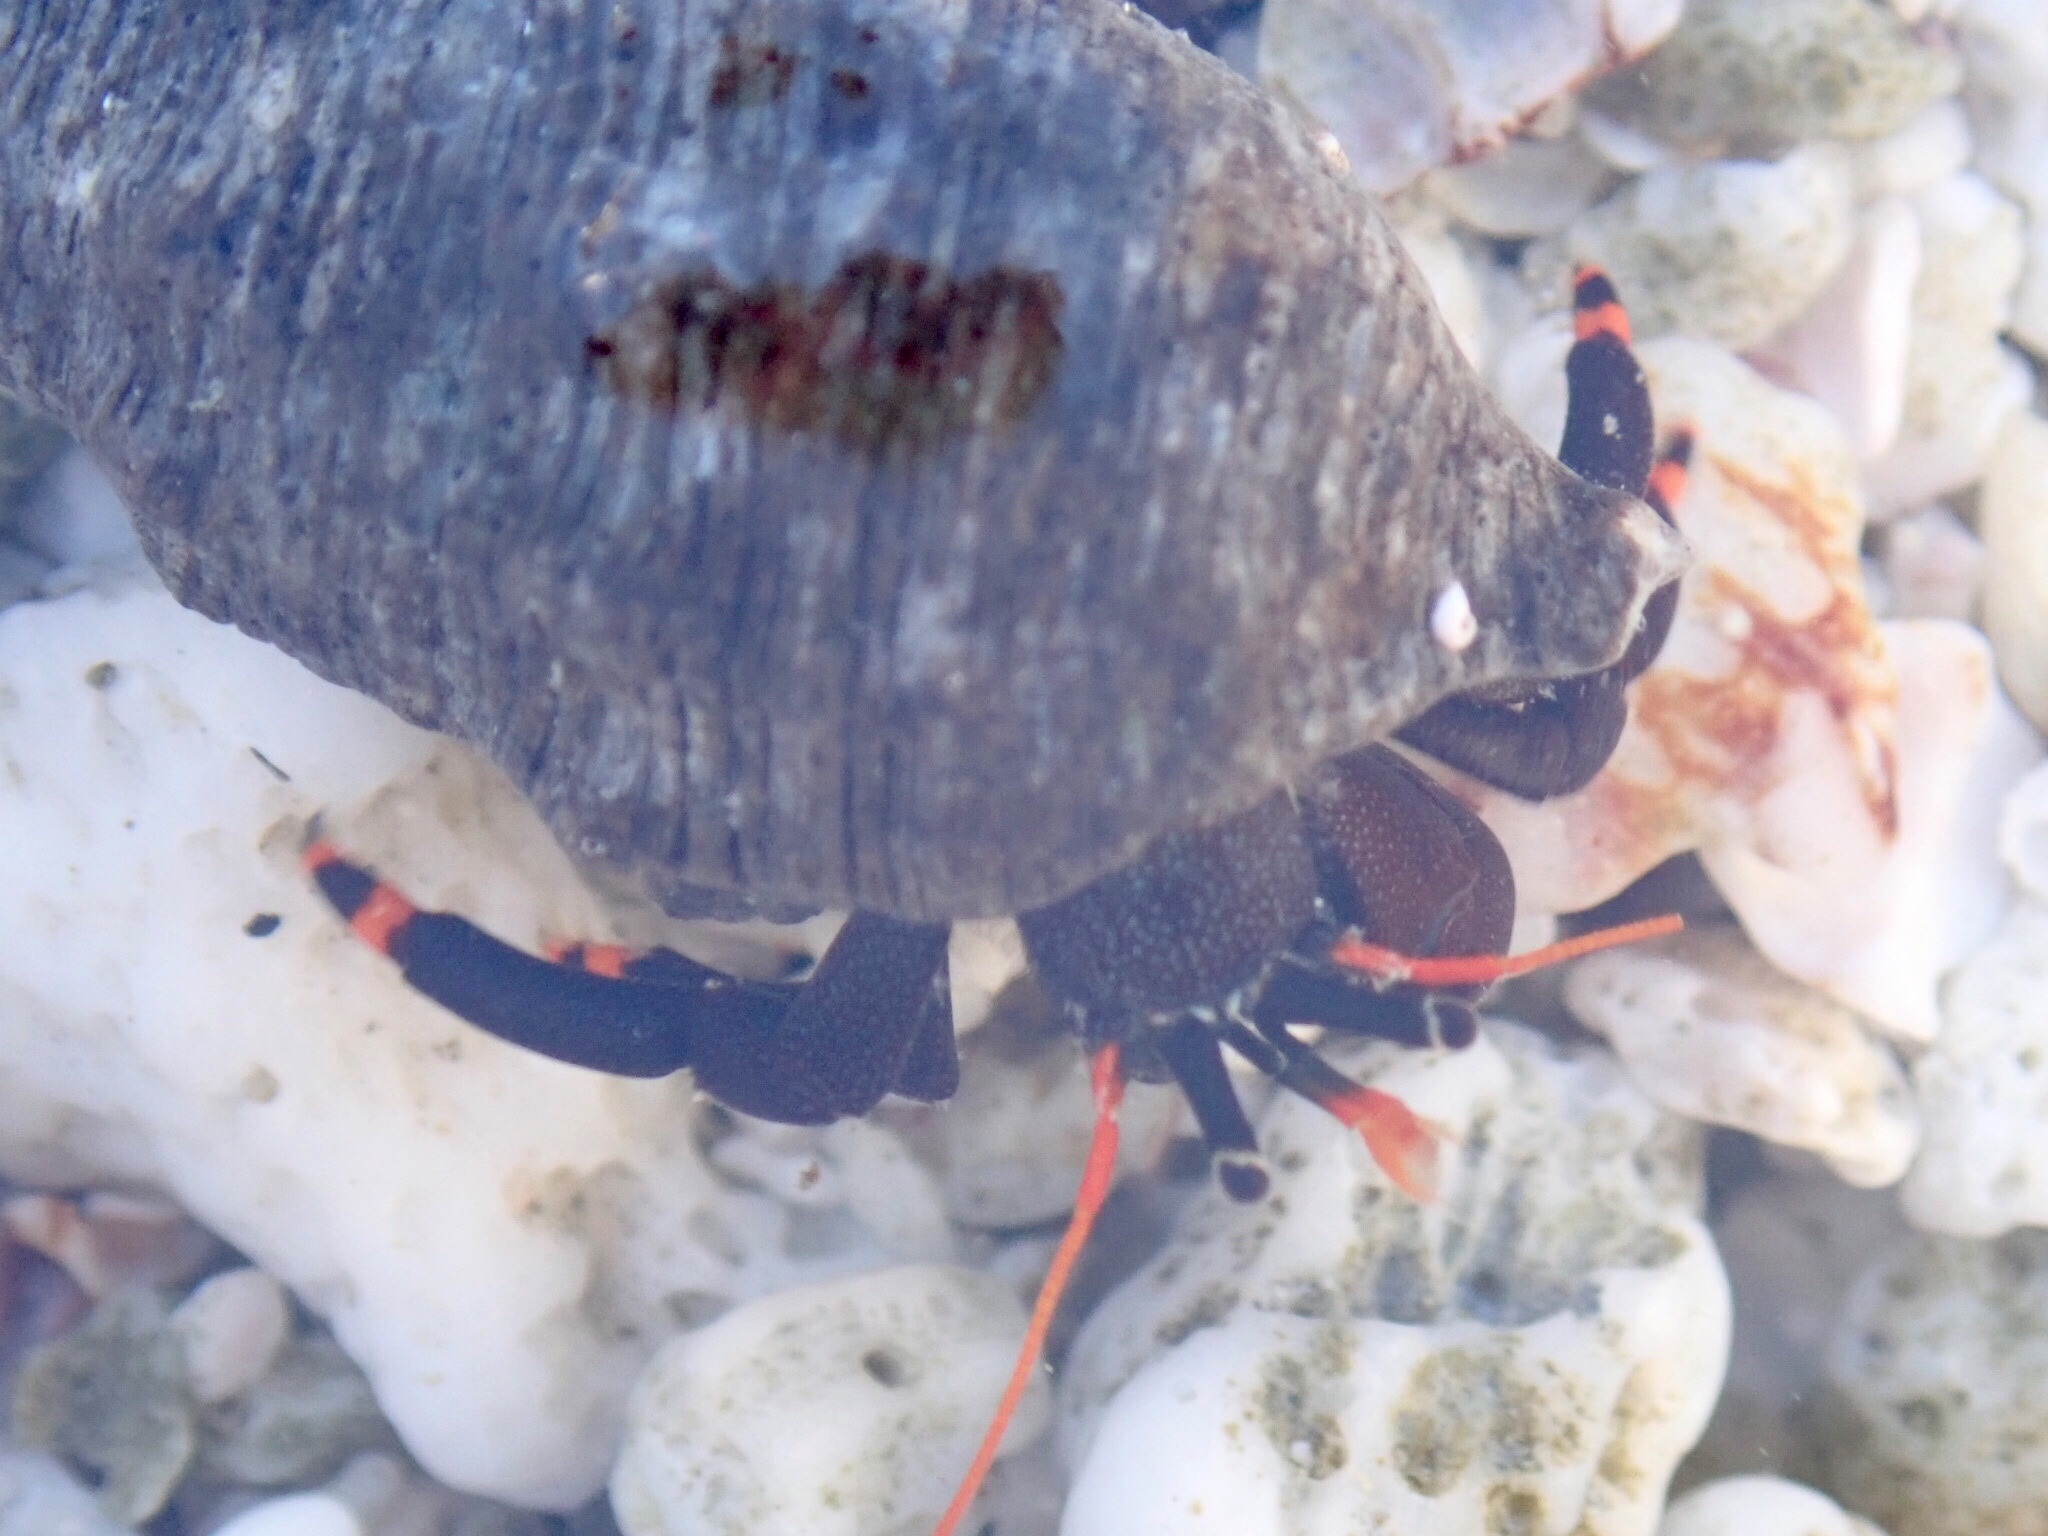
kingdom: Animalia
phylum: Arthropoda
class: Malacostraca
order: Decapoda
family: Diogenidae
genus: Calcinus
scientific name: Calcinus explorator
